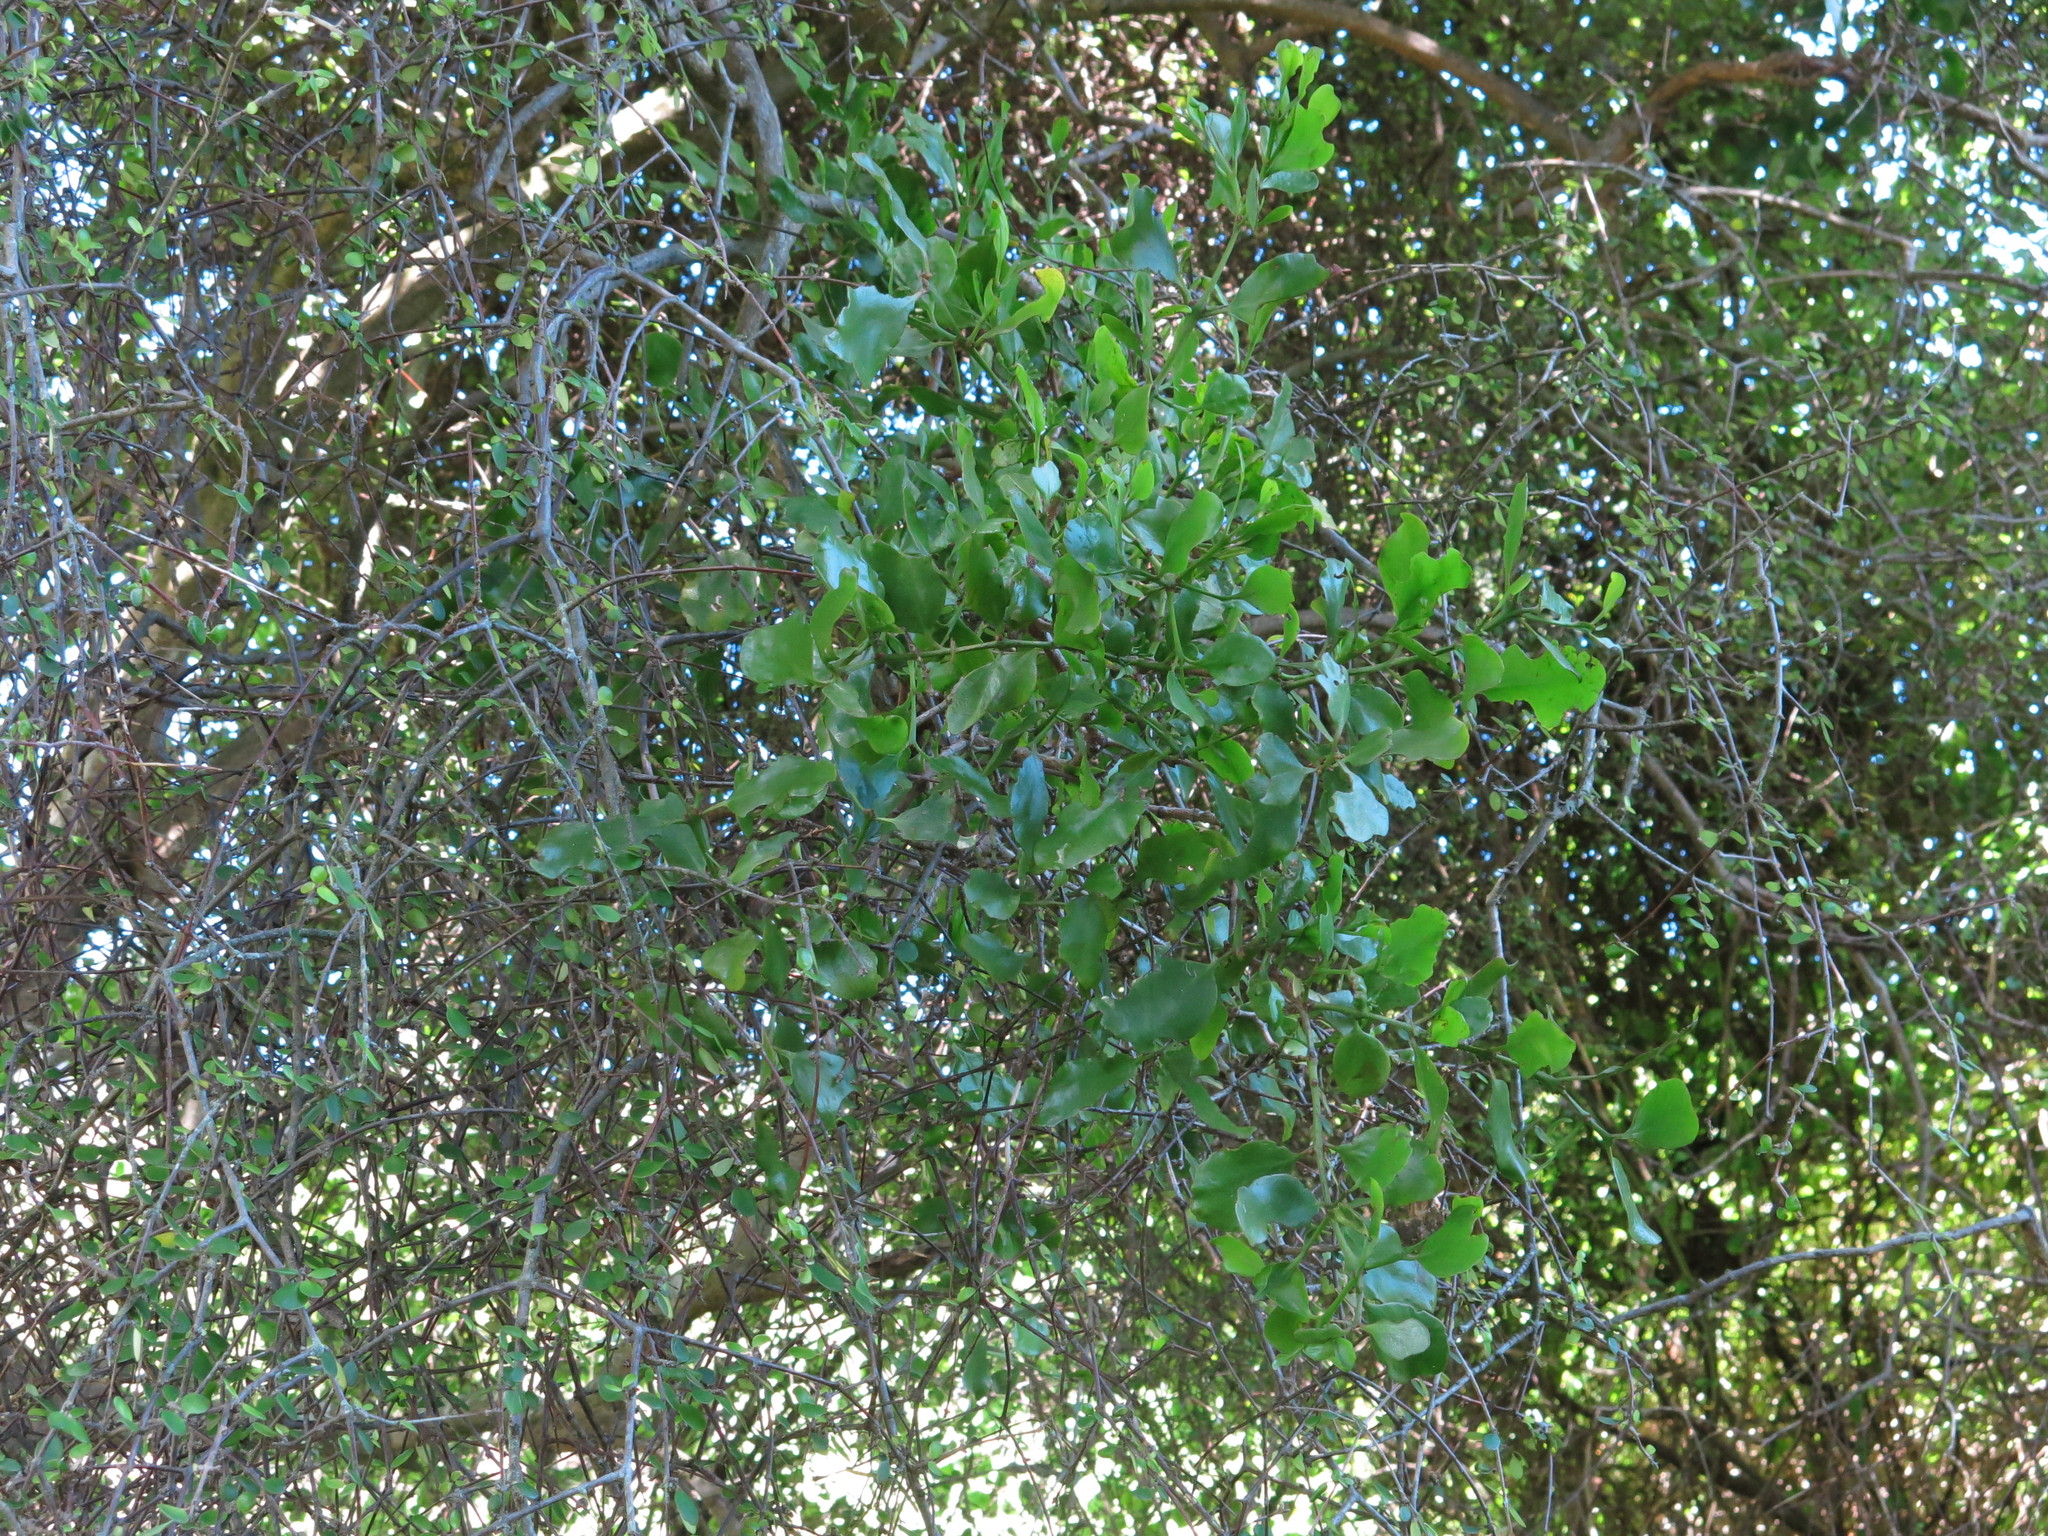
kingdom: Plantae
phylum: Tracheophyta
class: Magnoliopsida
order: Santalales
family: Loranthaceae
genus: Ileostylus
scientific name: Ileostylus micranthus
